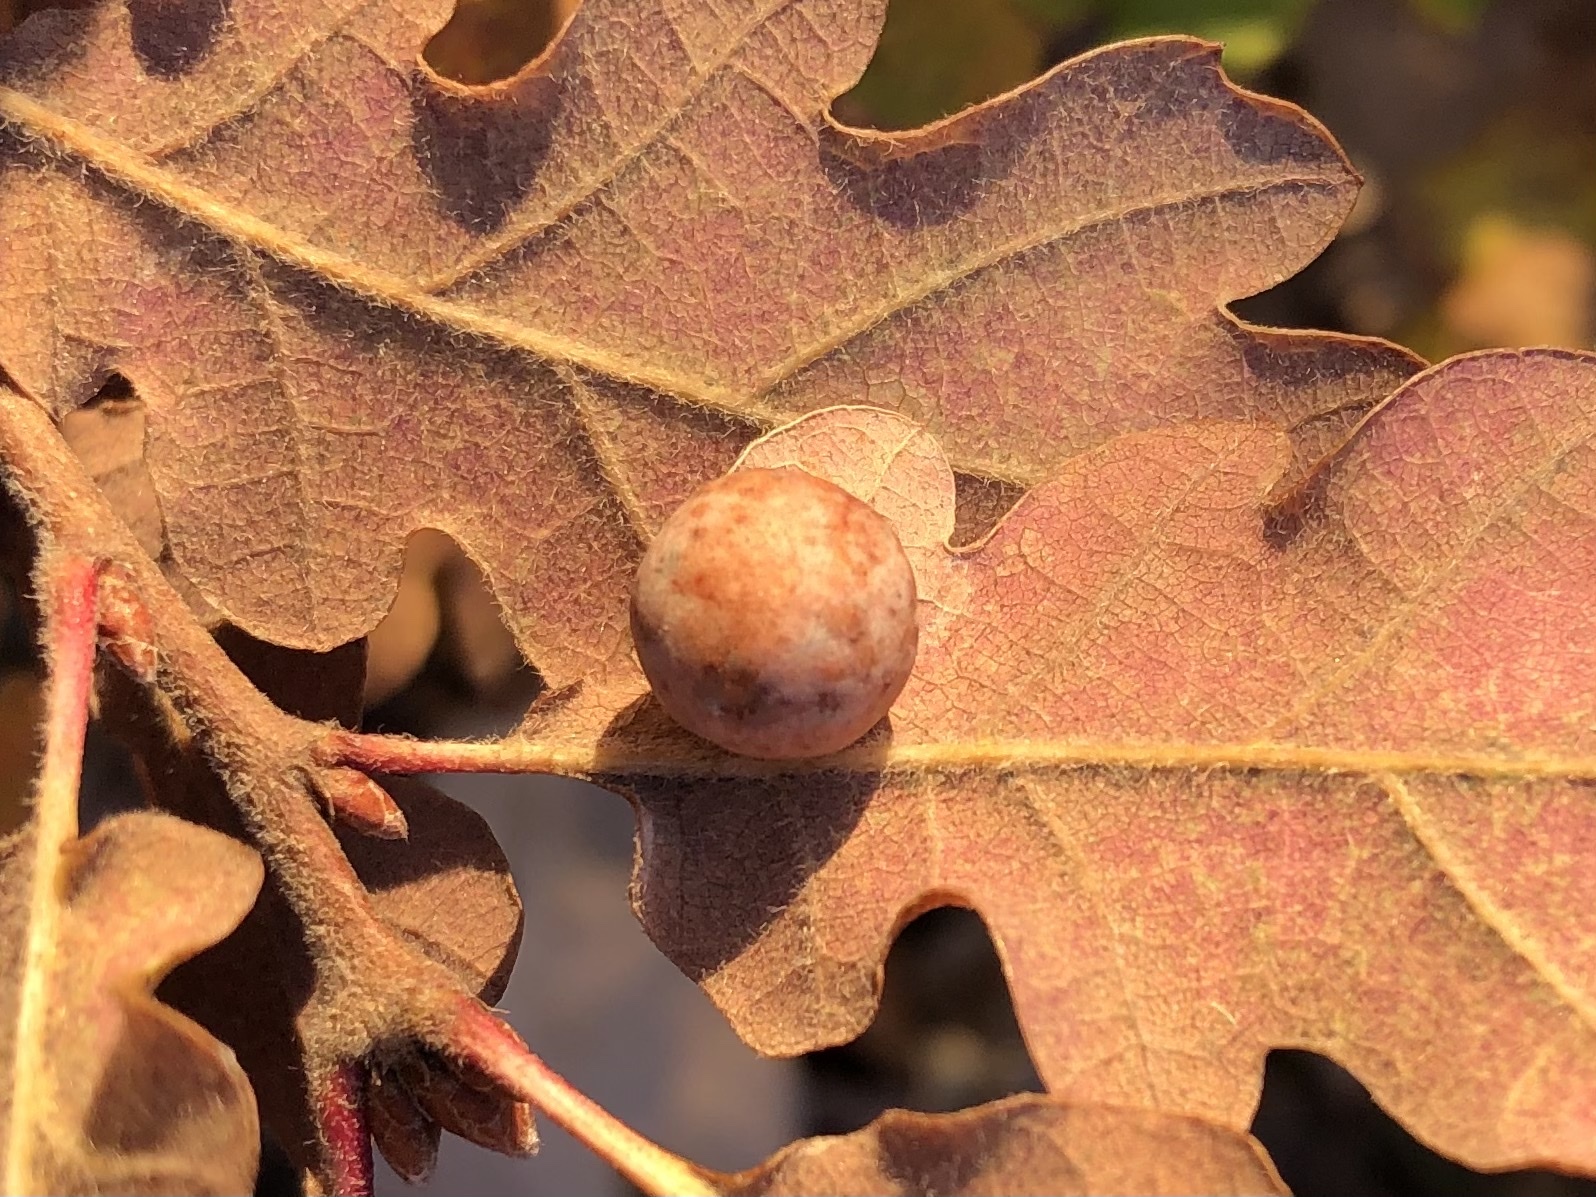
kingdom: Plantae
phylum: Tracheophyta
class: Magnoliopsida
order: Fagales
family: Fagaceae
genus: Quercus
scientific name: Quercus pubescens
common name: Downy oak
